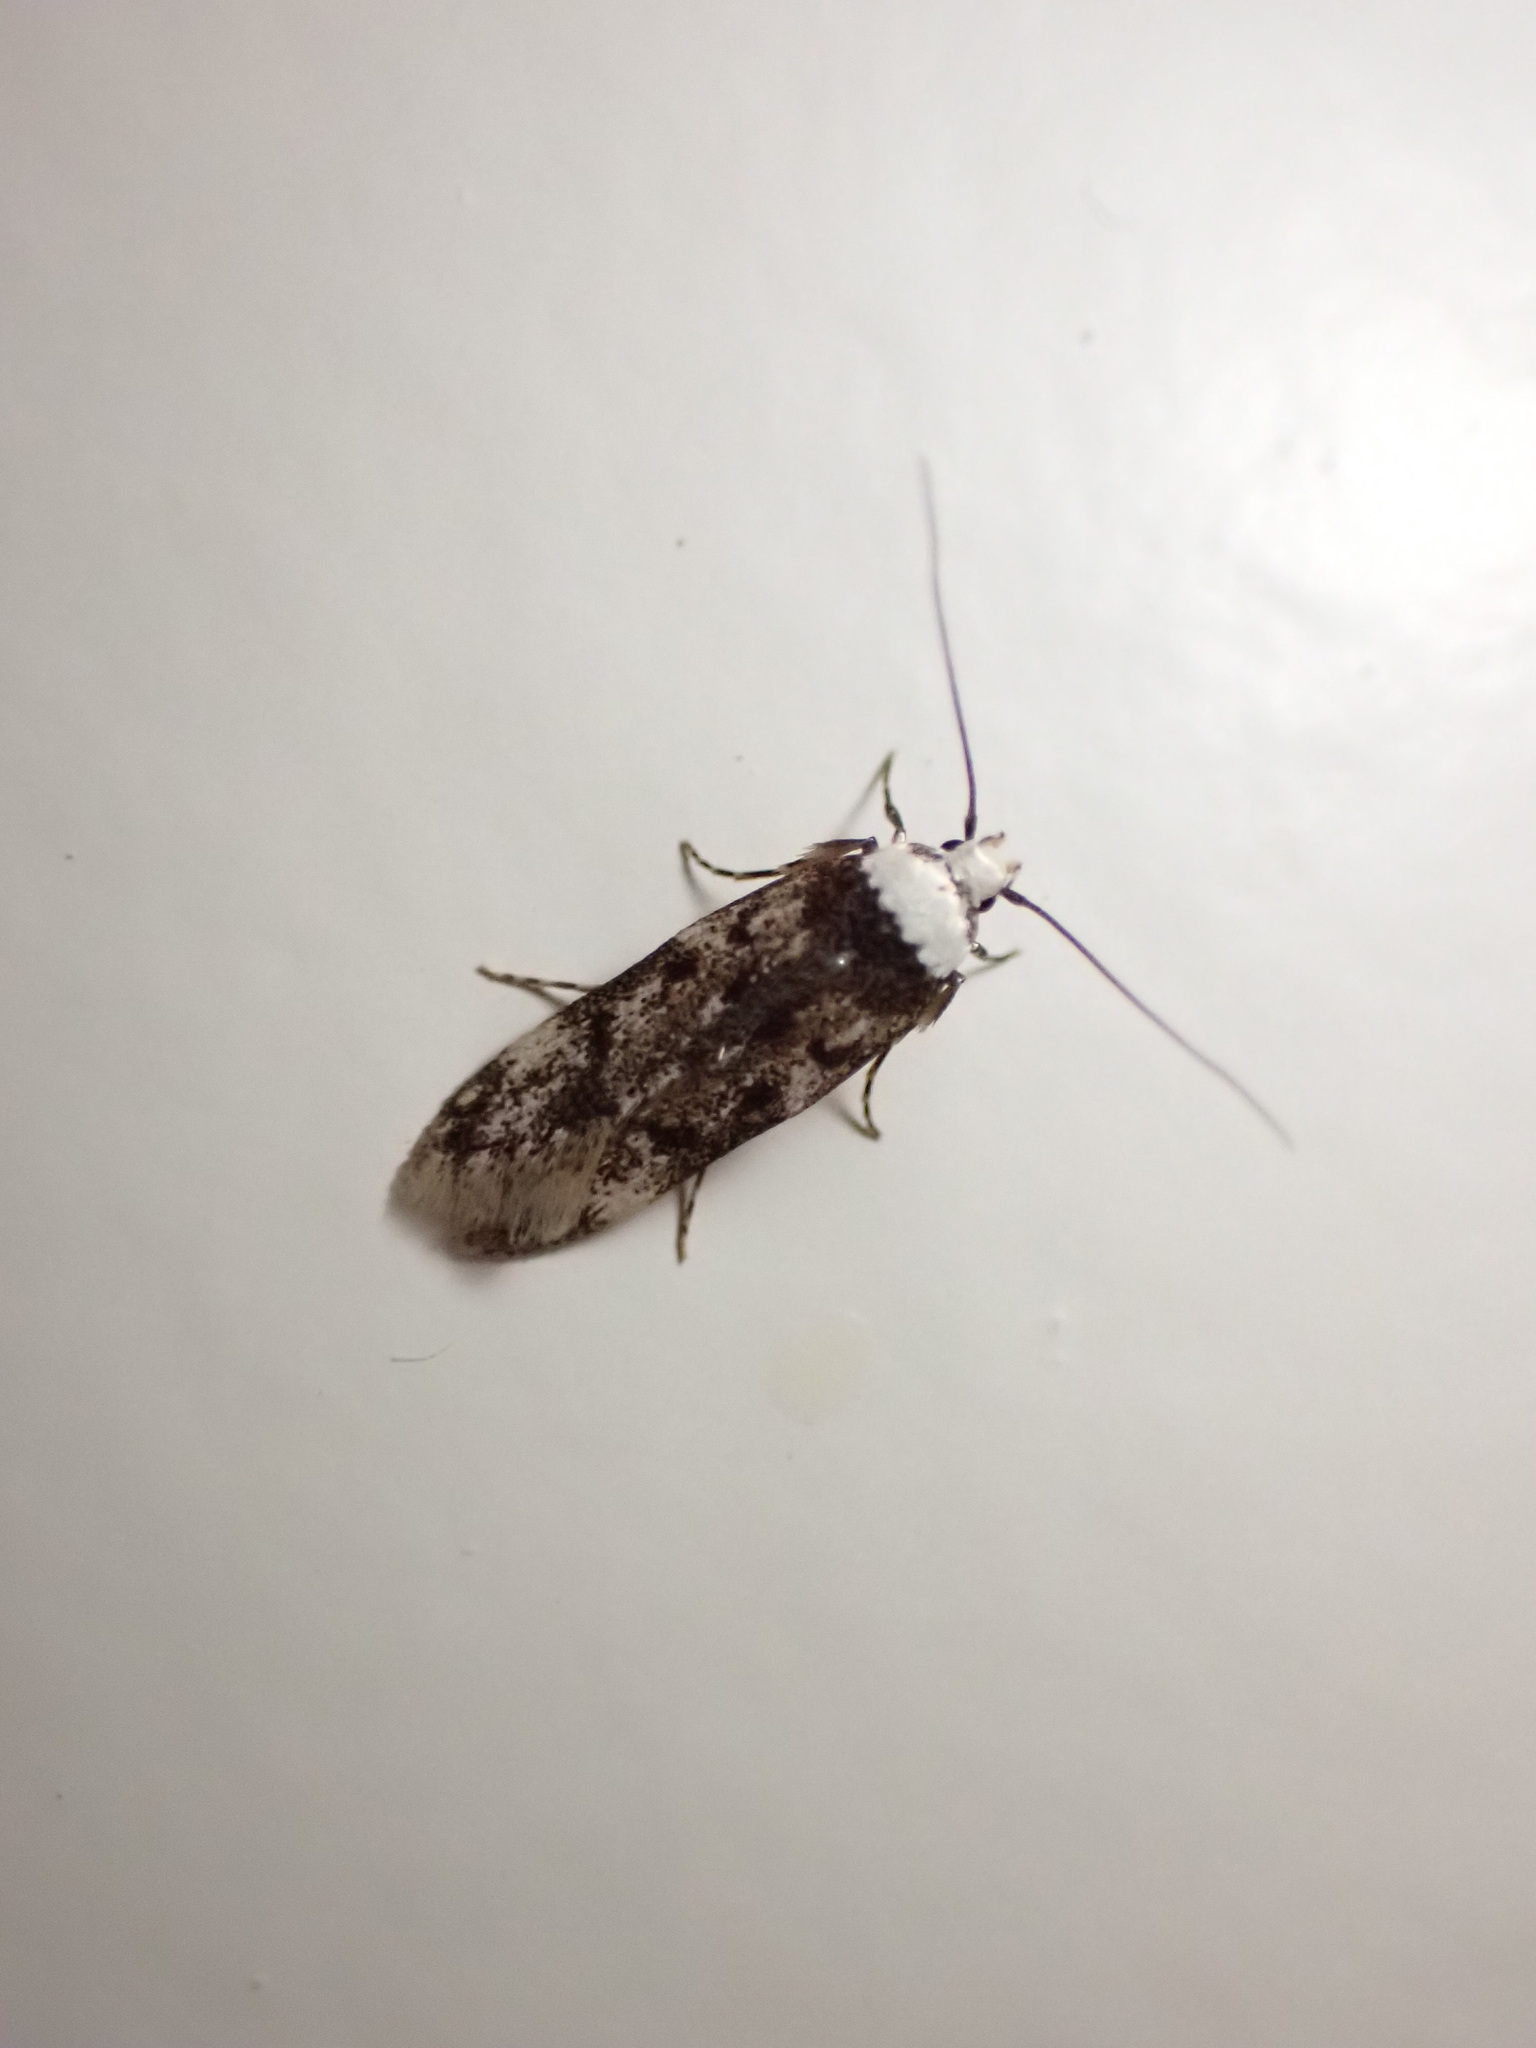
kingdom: Animalia
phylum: Arthropoda
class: Insecta
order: Lepidoptera
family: Oecophoridae
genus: Endrosis
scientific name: Endrosis sarcitrella
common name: White-shouldered house moth
